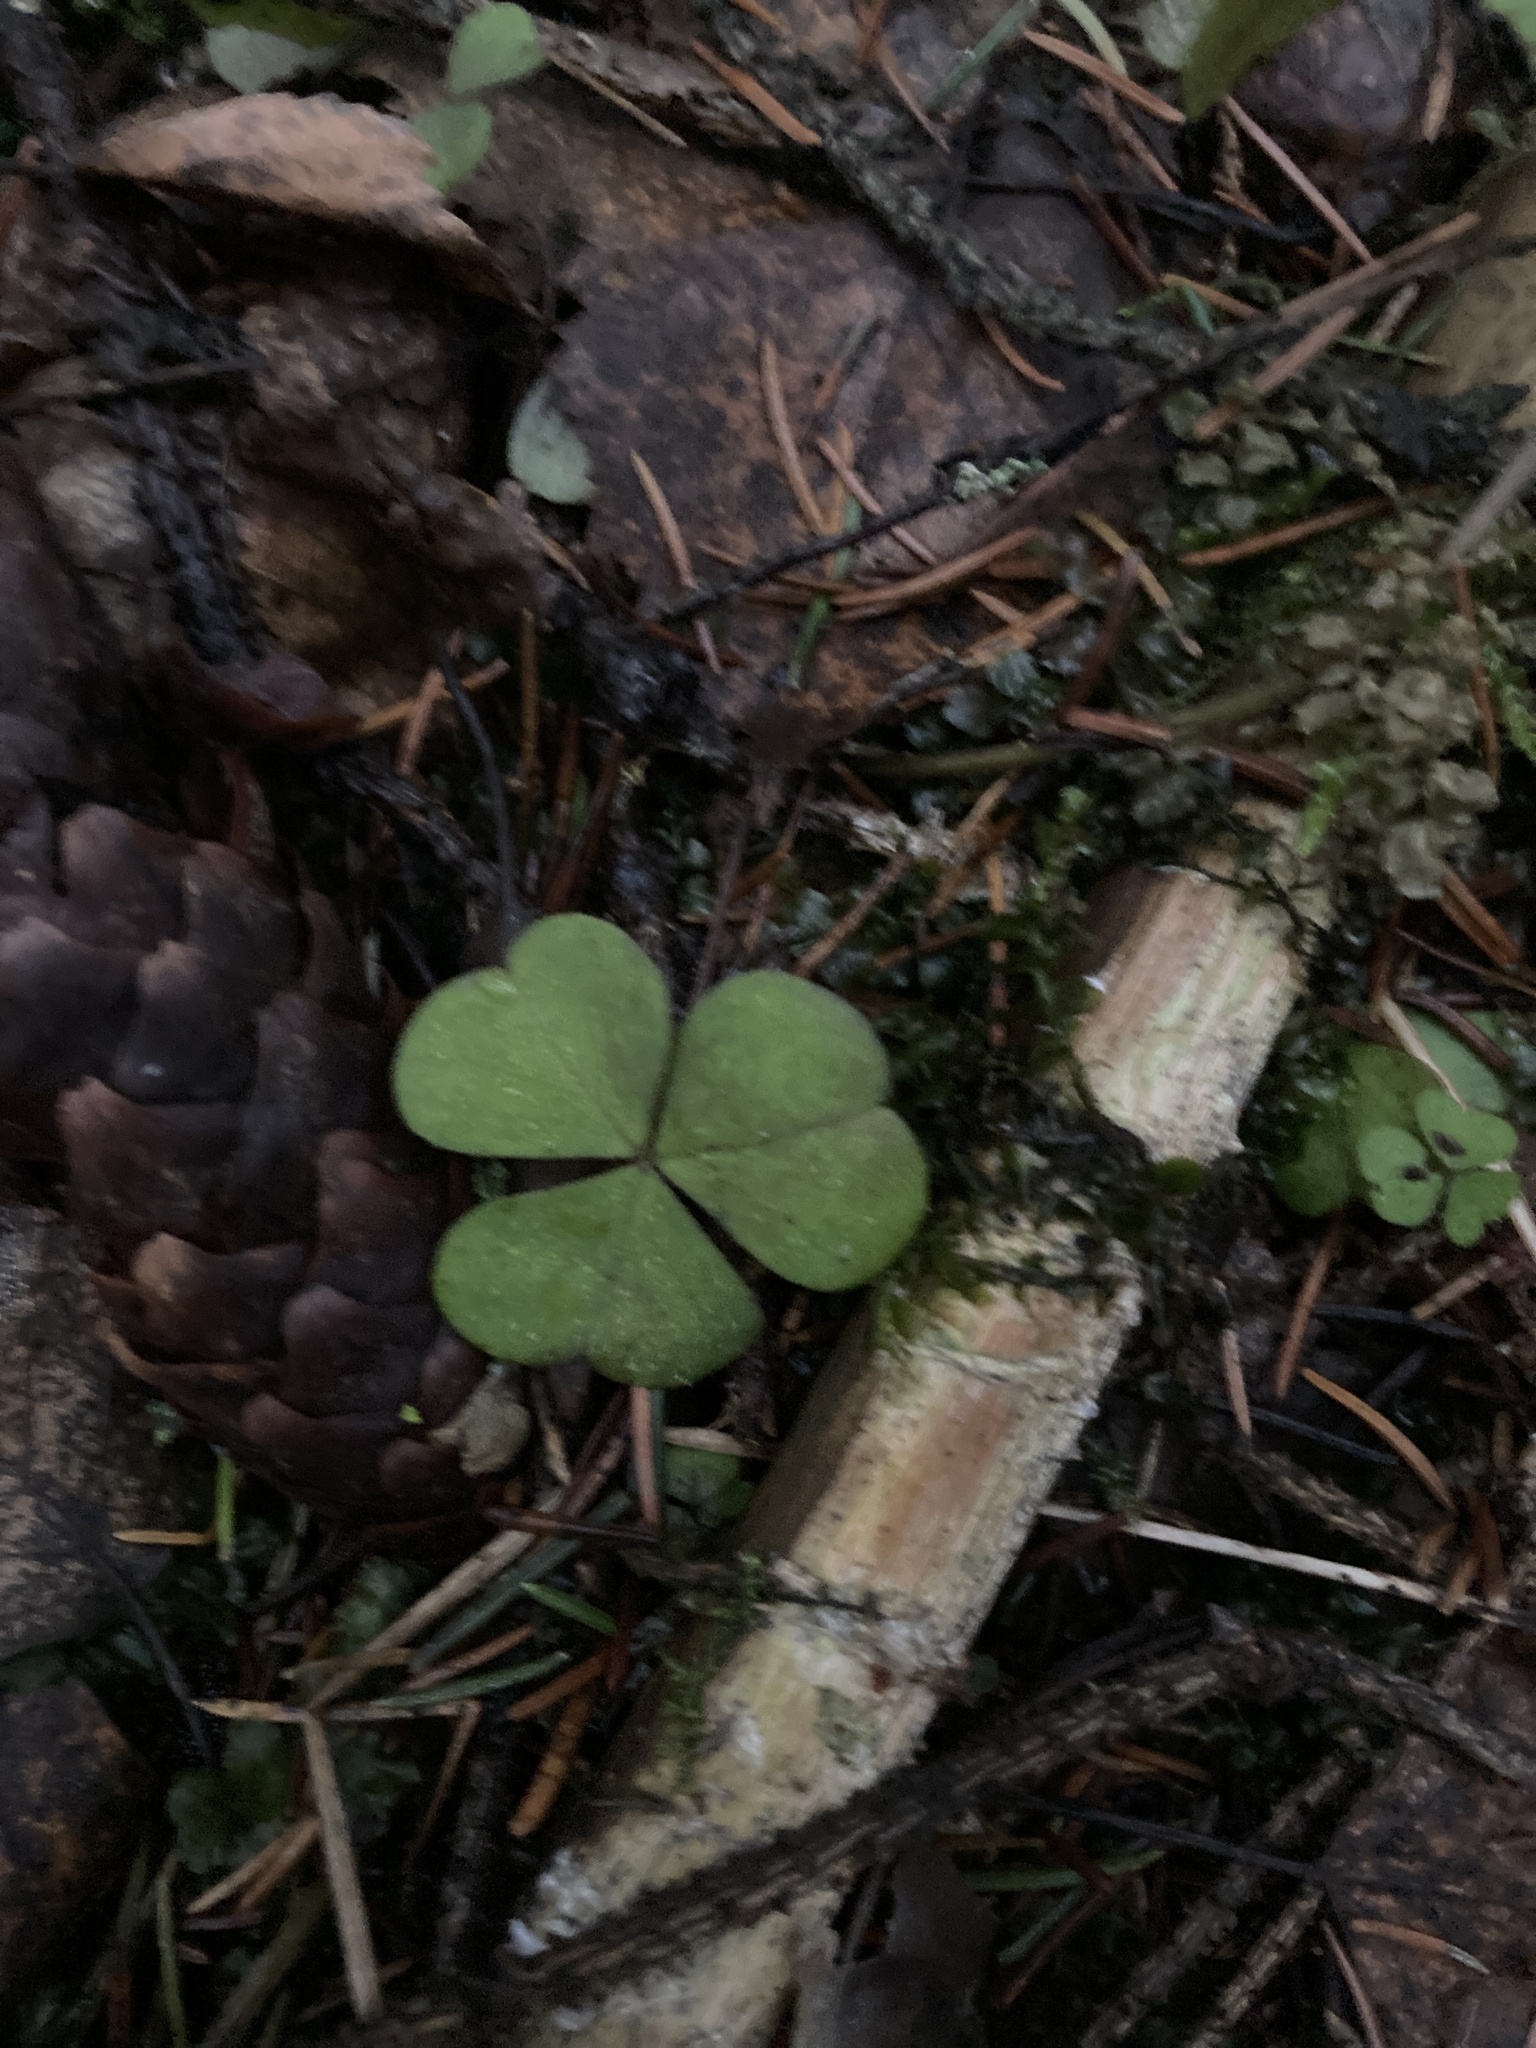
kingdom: Plantae
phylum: Tracheophyta
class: Magnoliopsida
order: Oxalidales
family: Oxalidaceae
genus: Oxalis
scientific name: Oxalis acetosella
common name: Wood-sorrel
